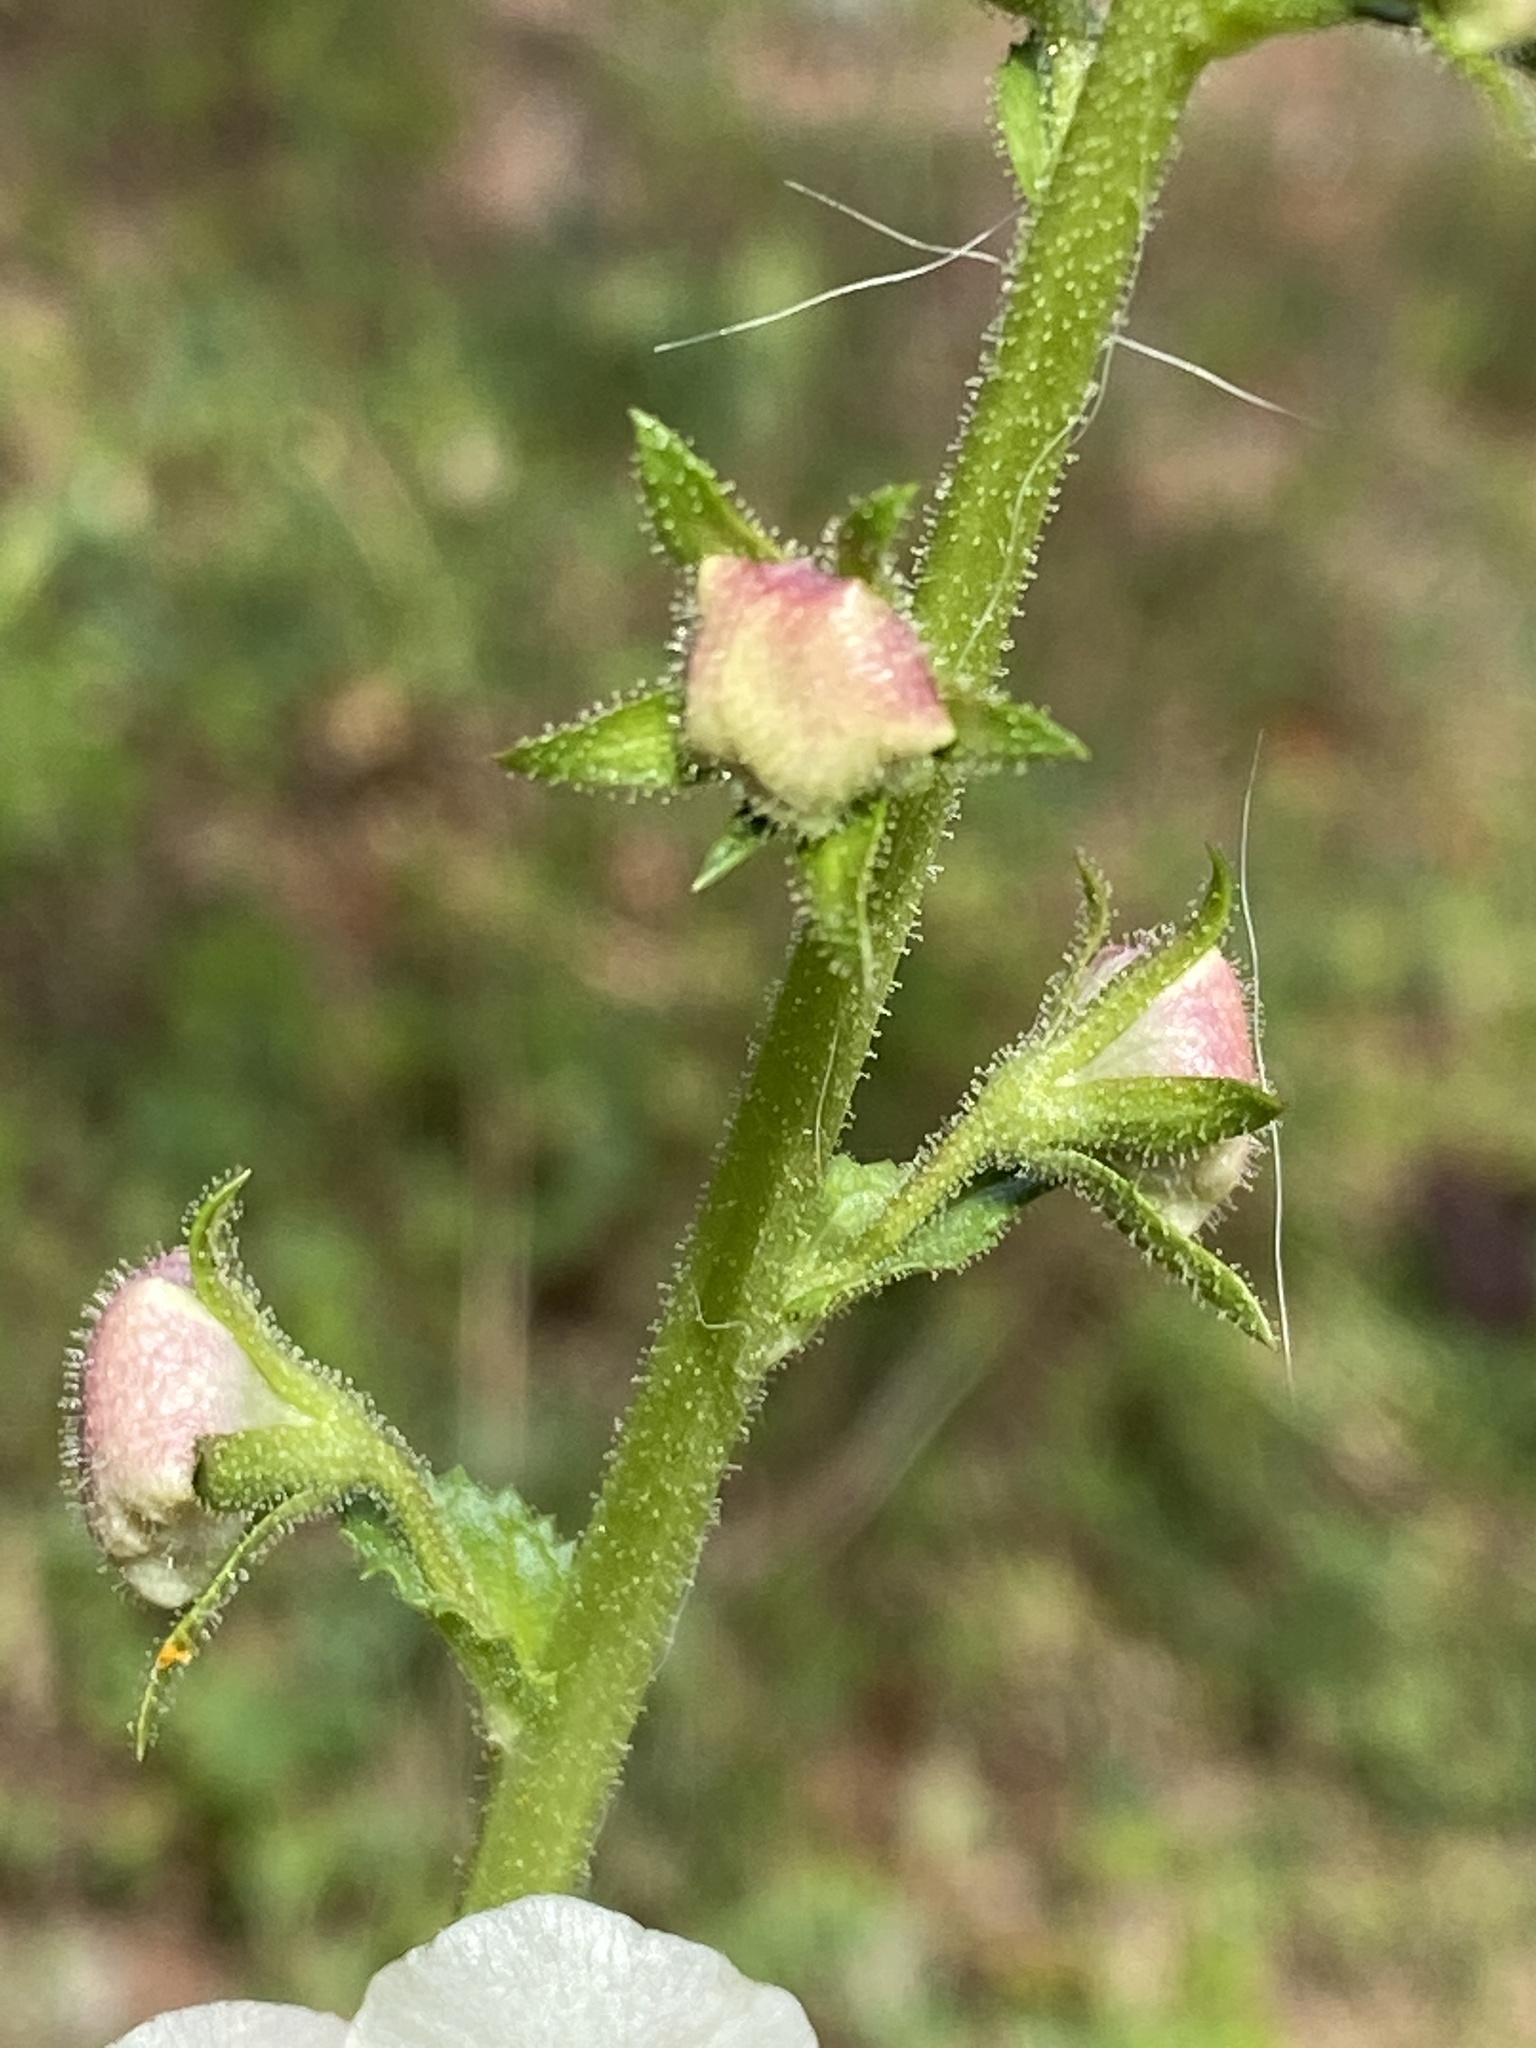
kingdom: Plantae
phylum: Tracheophyta
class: Magnoliopsida
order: Lamiales
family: Scrophulariaceae
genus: Verbascum
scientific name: Verbascum blattaria
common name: Moth mullein
